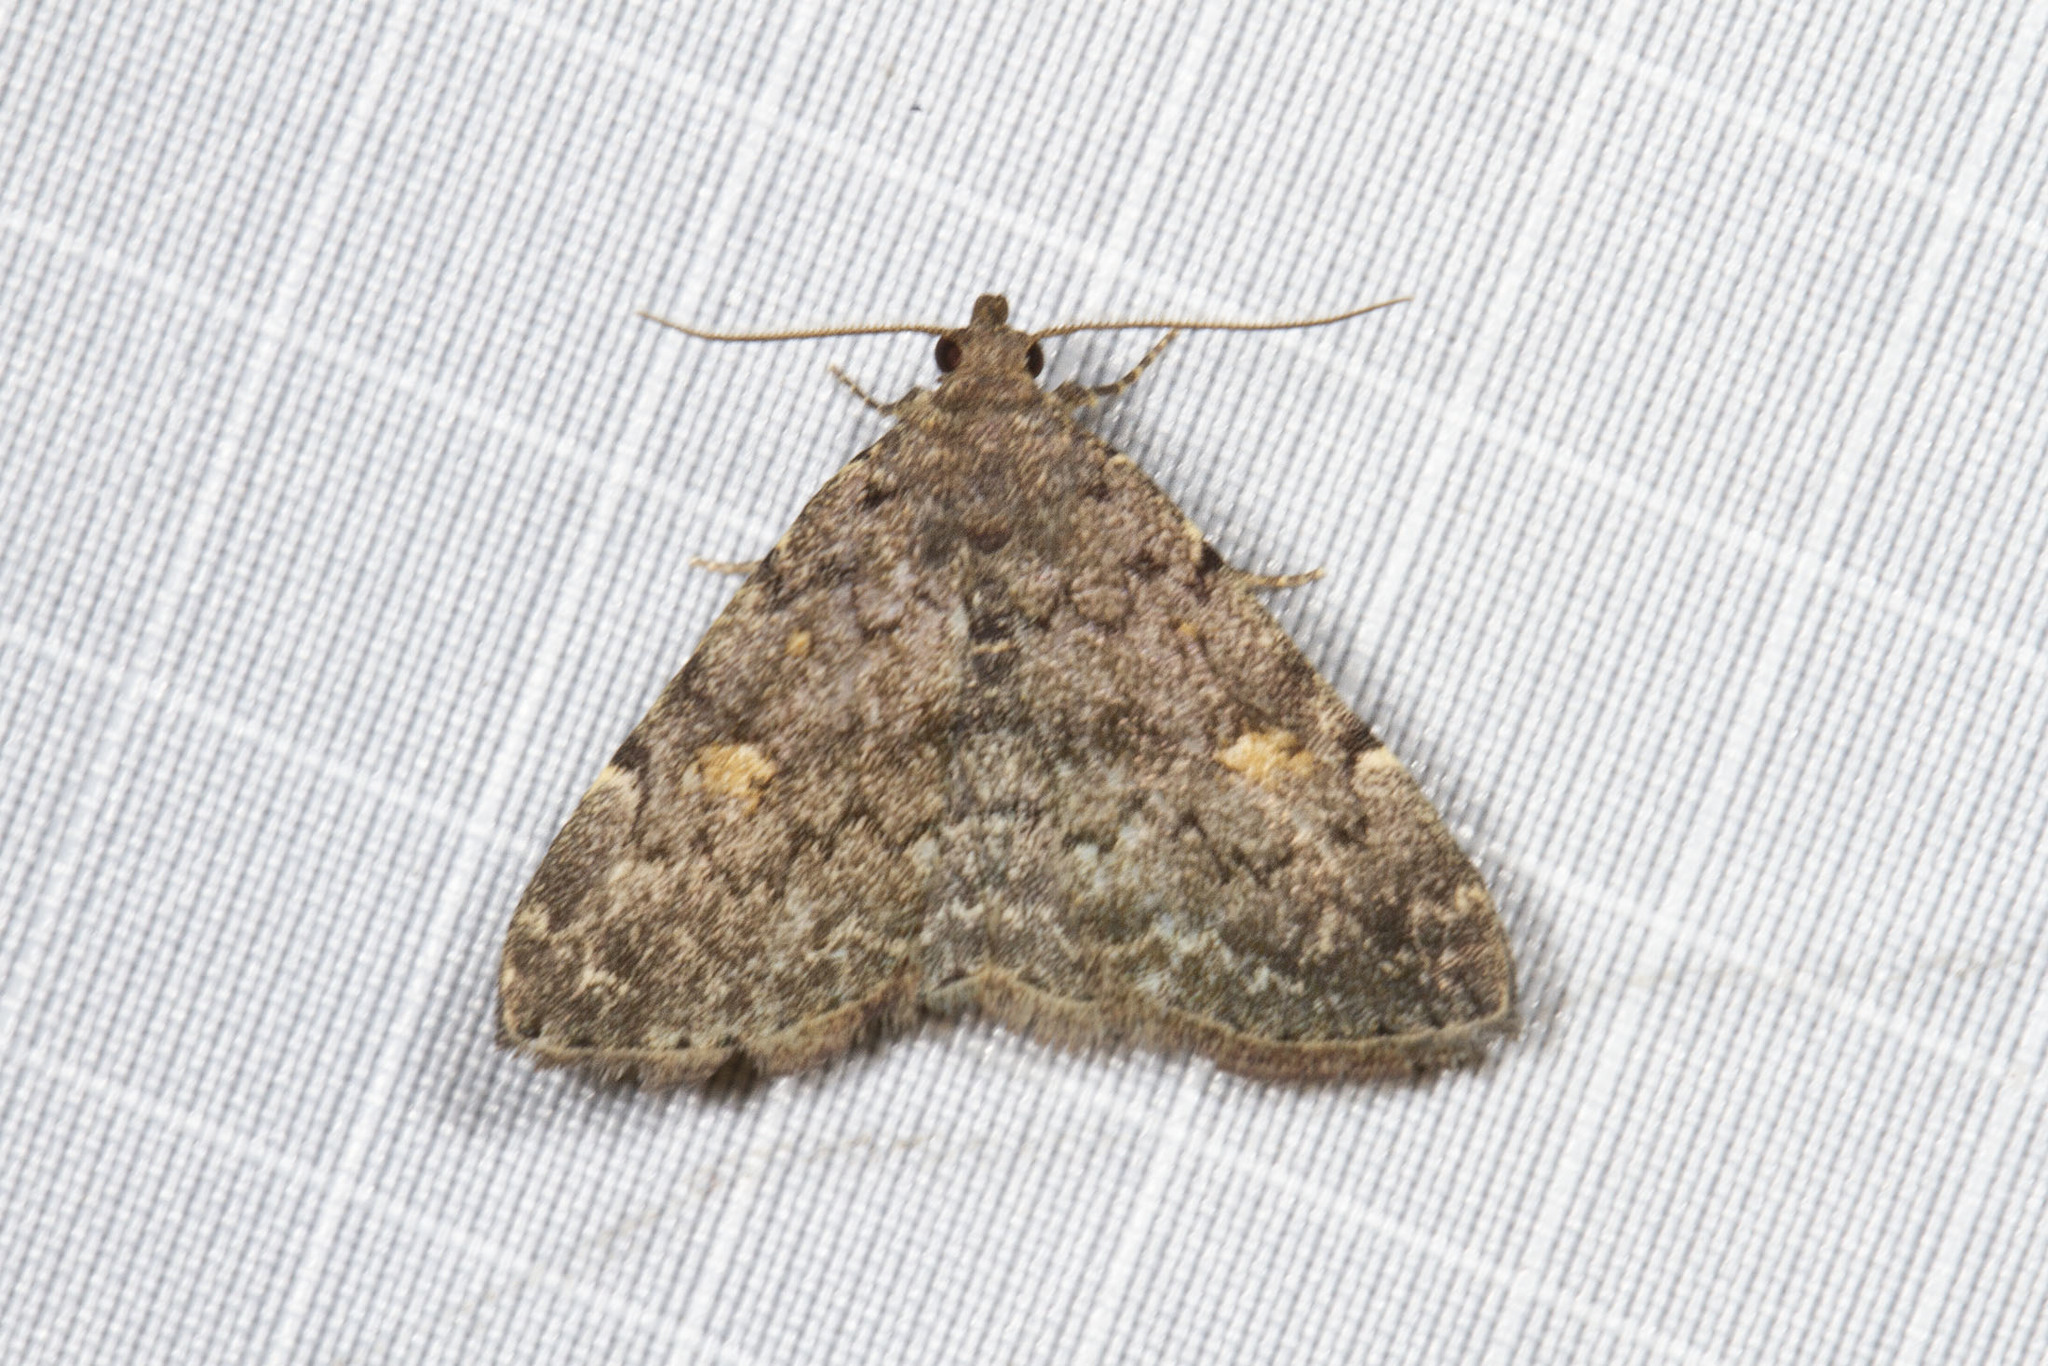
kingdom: Animalia
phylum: Arthropoda
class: Insecta
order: Lepidoptera
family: Erebidae
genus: Idia
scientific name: Idia aemula
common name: Common idia moth
